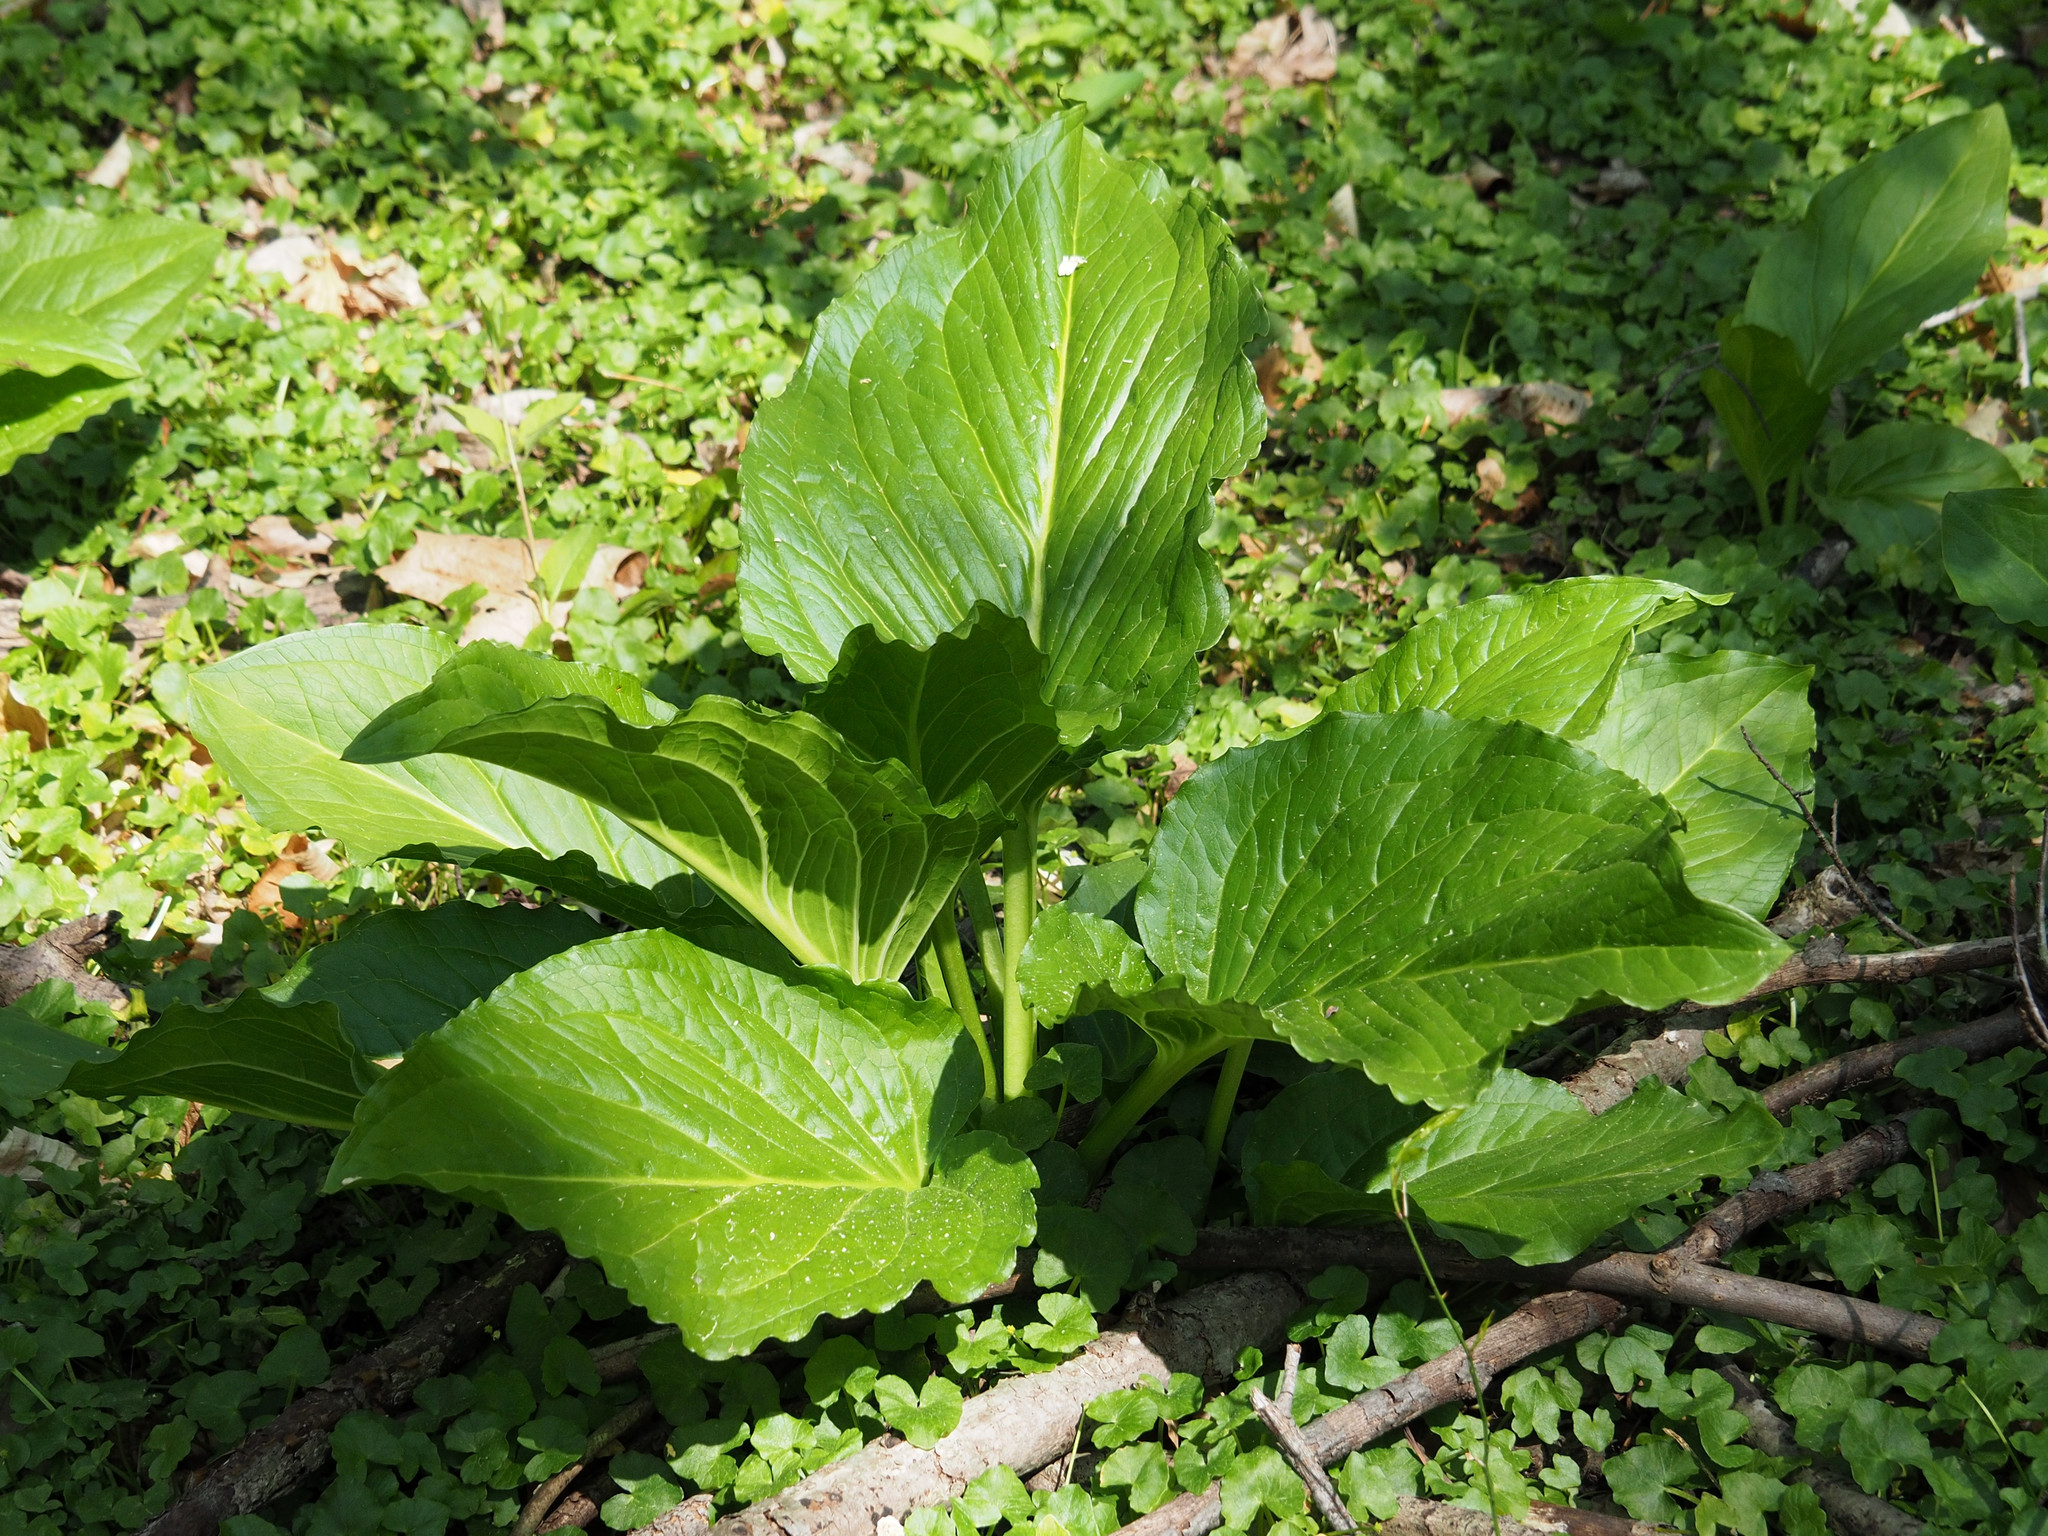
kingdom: Plantae
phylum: Tracheophyta
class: Liliopsida
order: Alismatales
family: Araceae
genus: Symplocarpus
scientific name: Symplocarpus foetidus
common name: Eastern skunk cabbage
